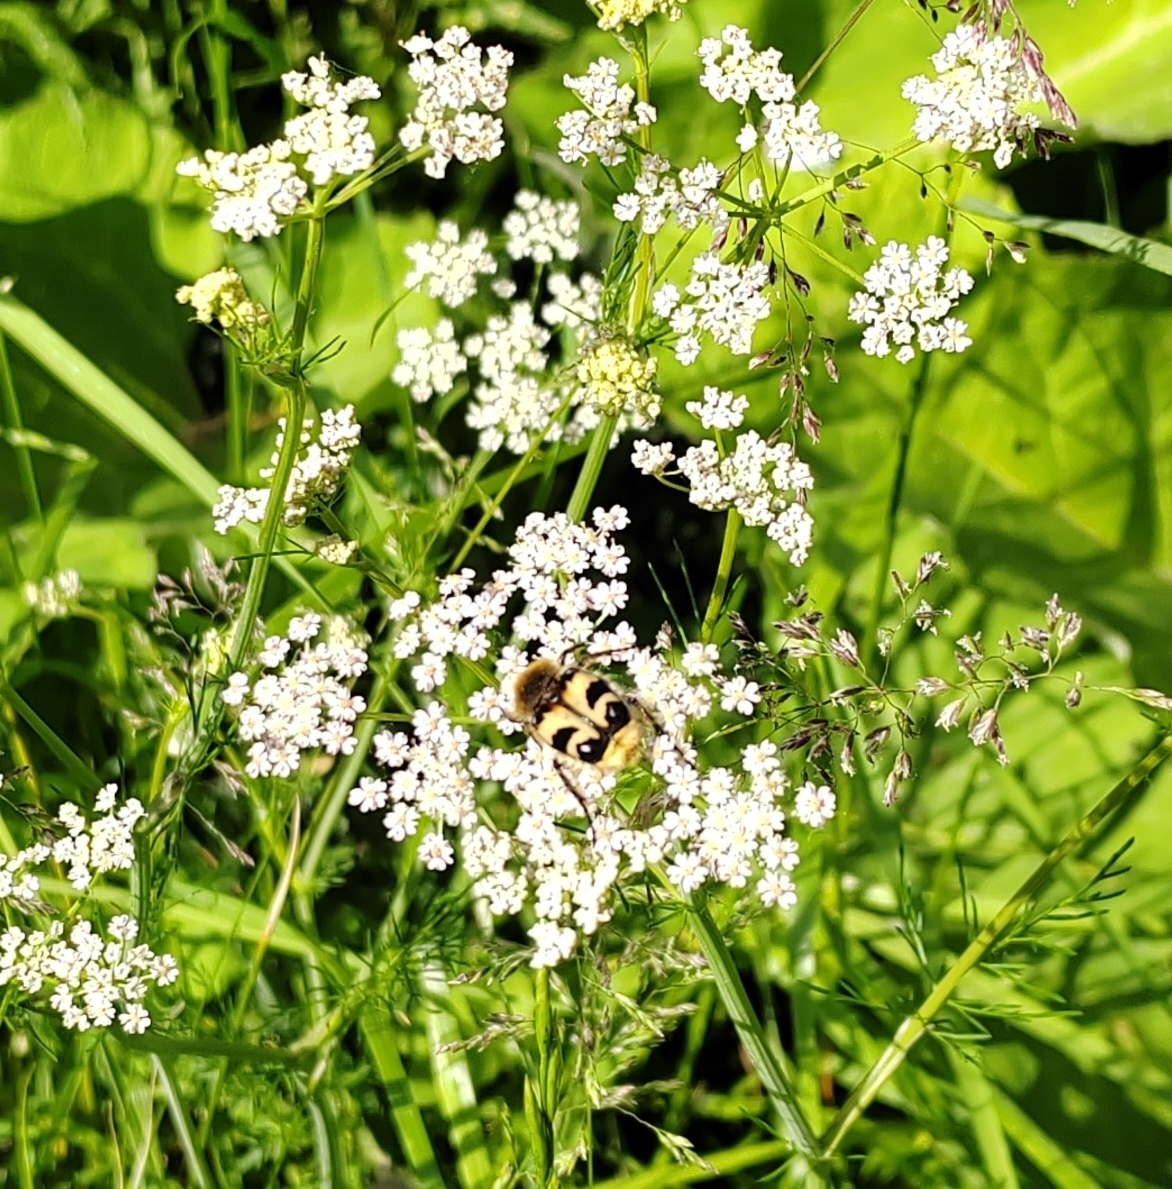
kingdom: Animalia
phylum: Arthropoda
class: Insecta
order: Coleoptera
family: Scarabaeidae
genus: Trichius
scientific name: Trichius fasciatus
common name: Bee beetle
